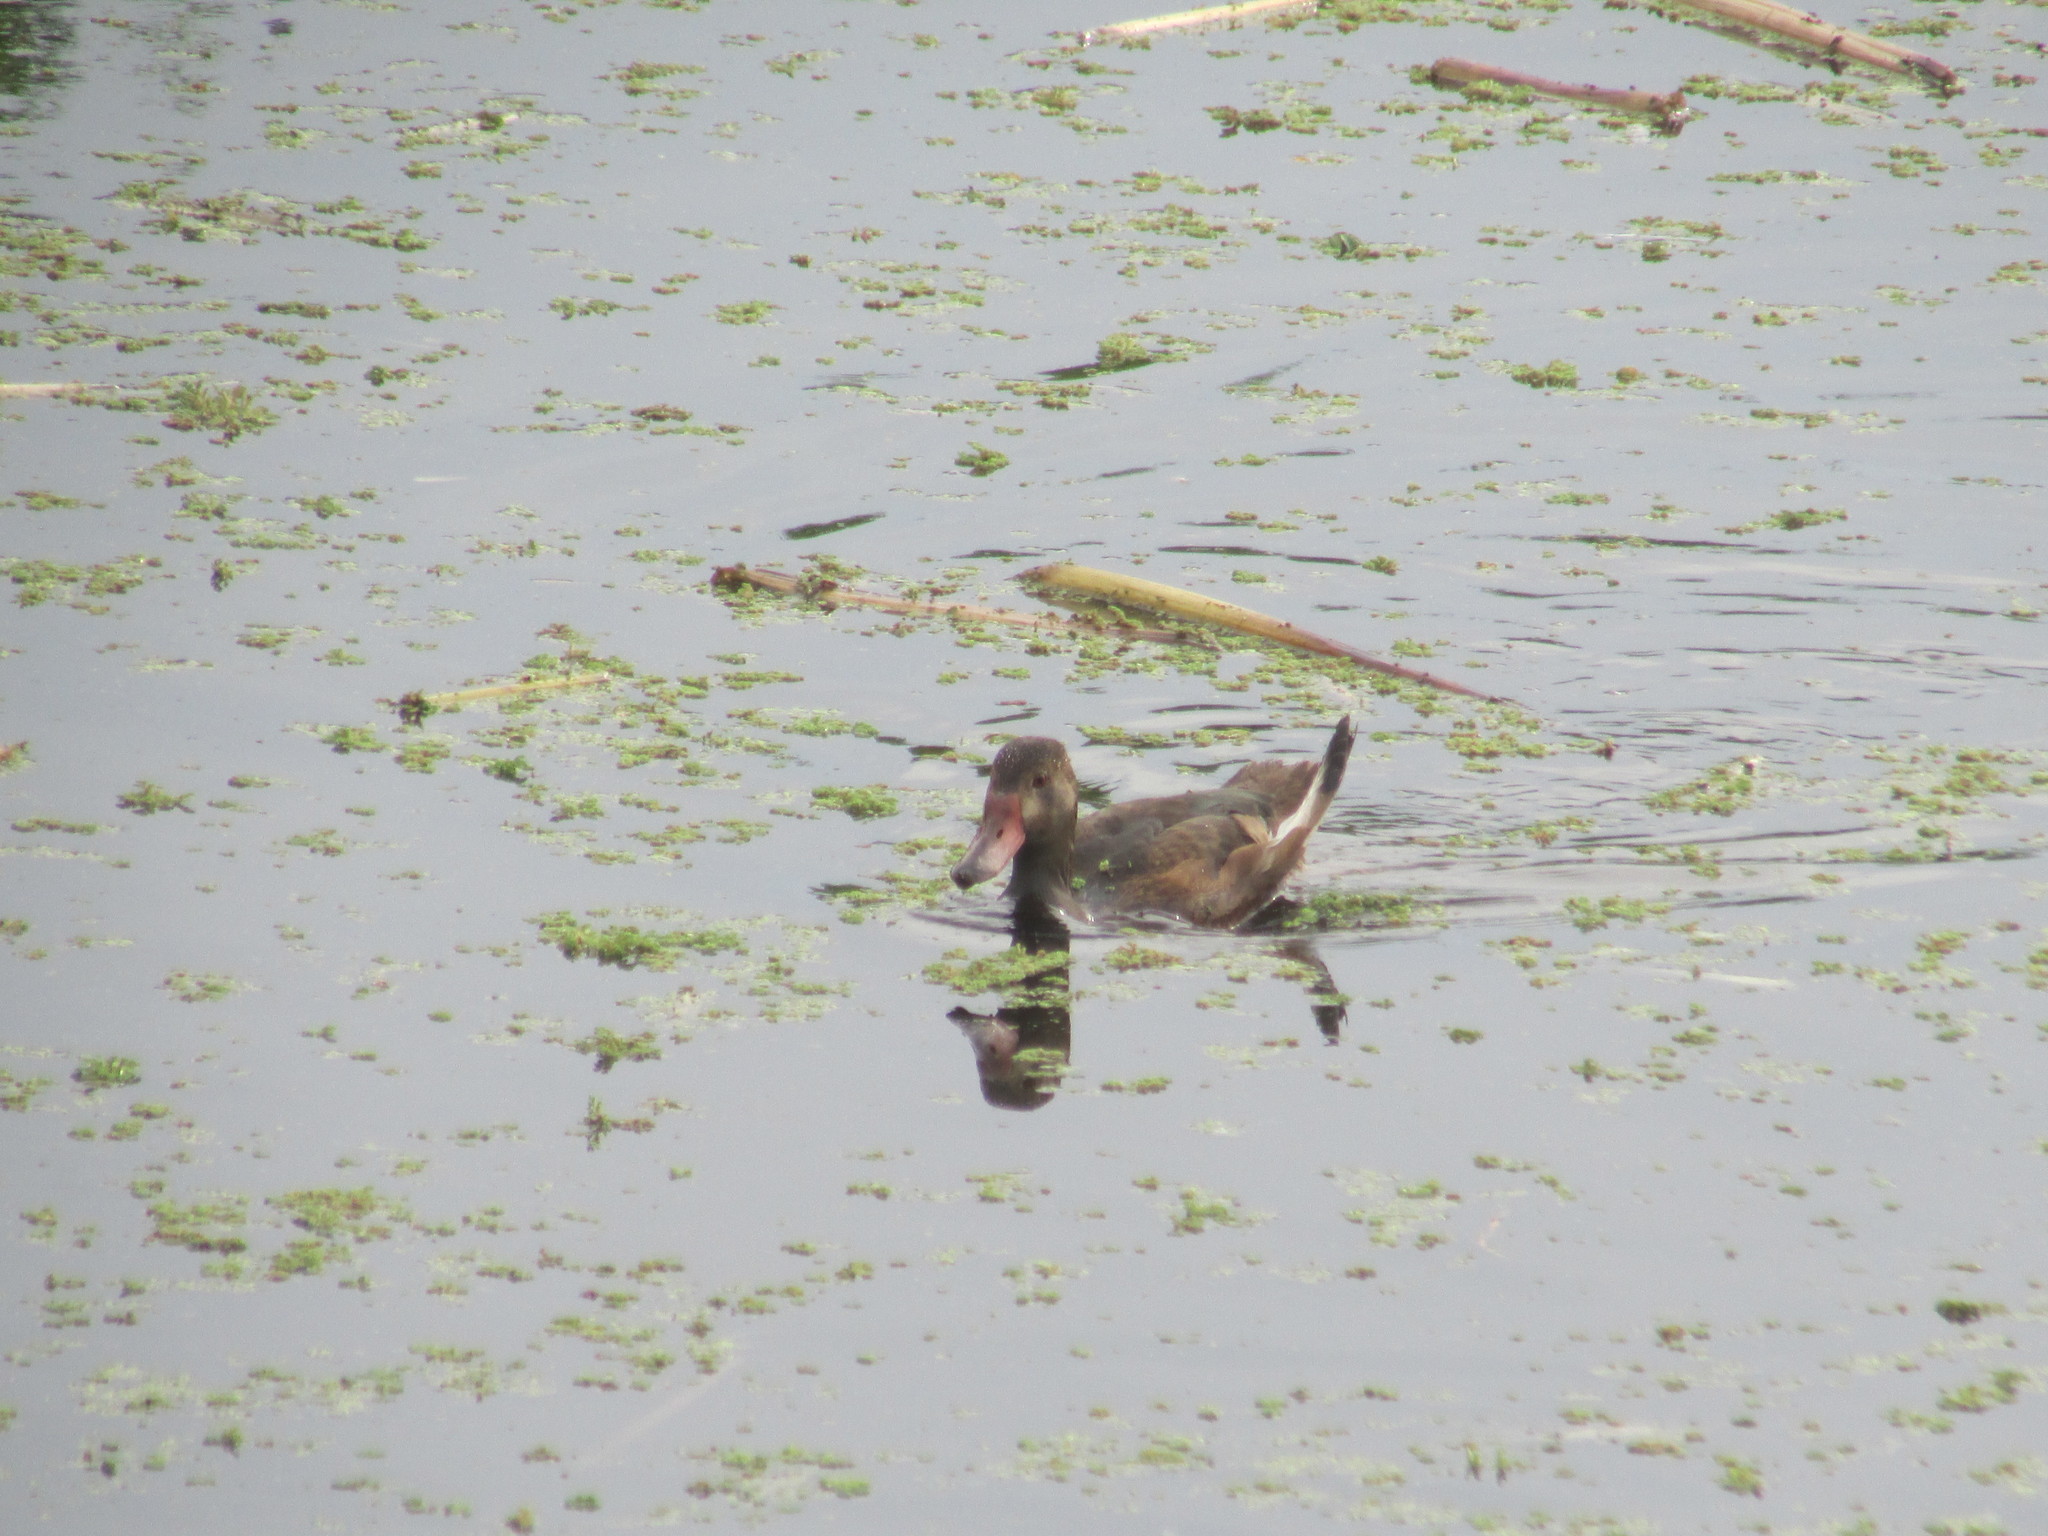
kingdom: Animalia
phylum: Chordata
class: Aves
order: Anseriformes
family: Anatidae
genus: Netta
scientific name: Netta peposaca
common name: Rosy-billed pochard
